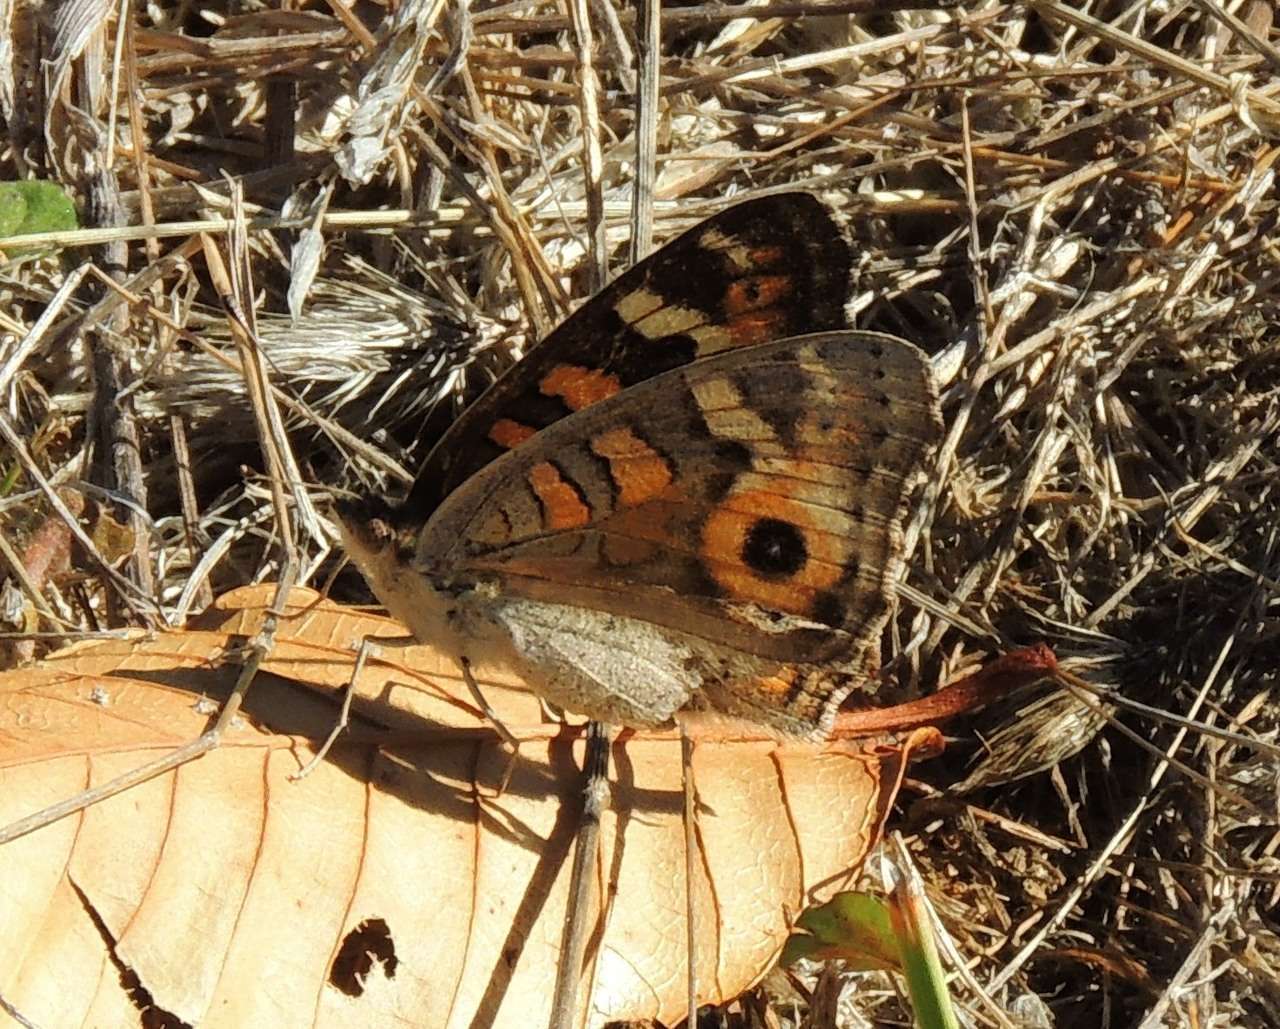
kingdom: Animalia
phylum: Arthropoda
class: Insecta
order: Lepidoptera
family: Nymphalidae
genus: Junonia
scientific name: Junonia villida
